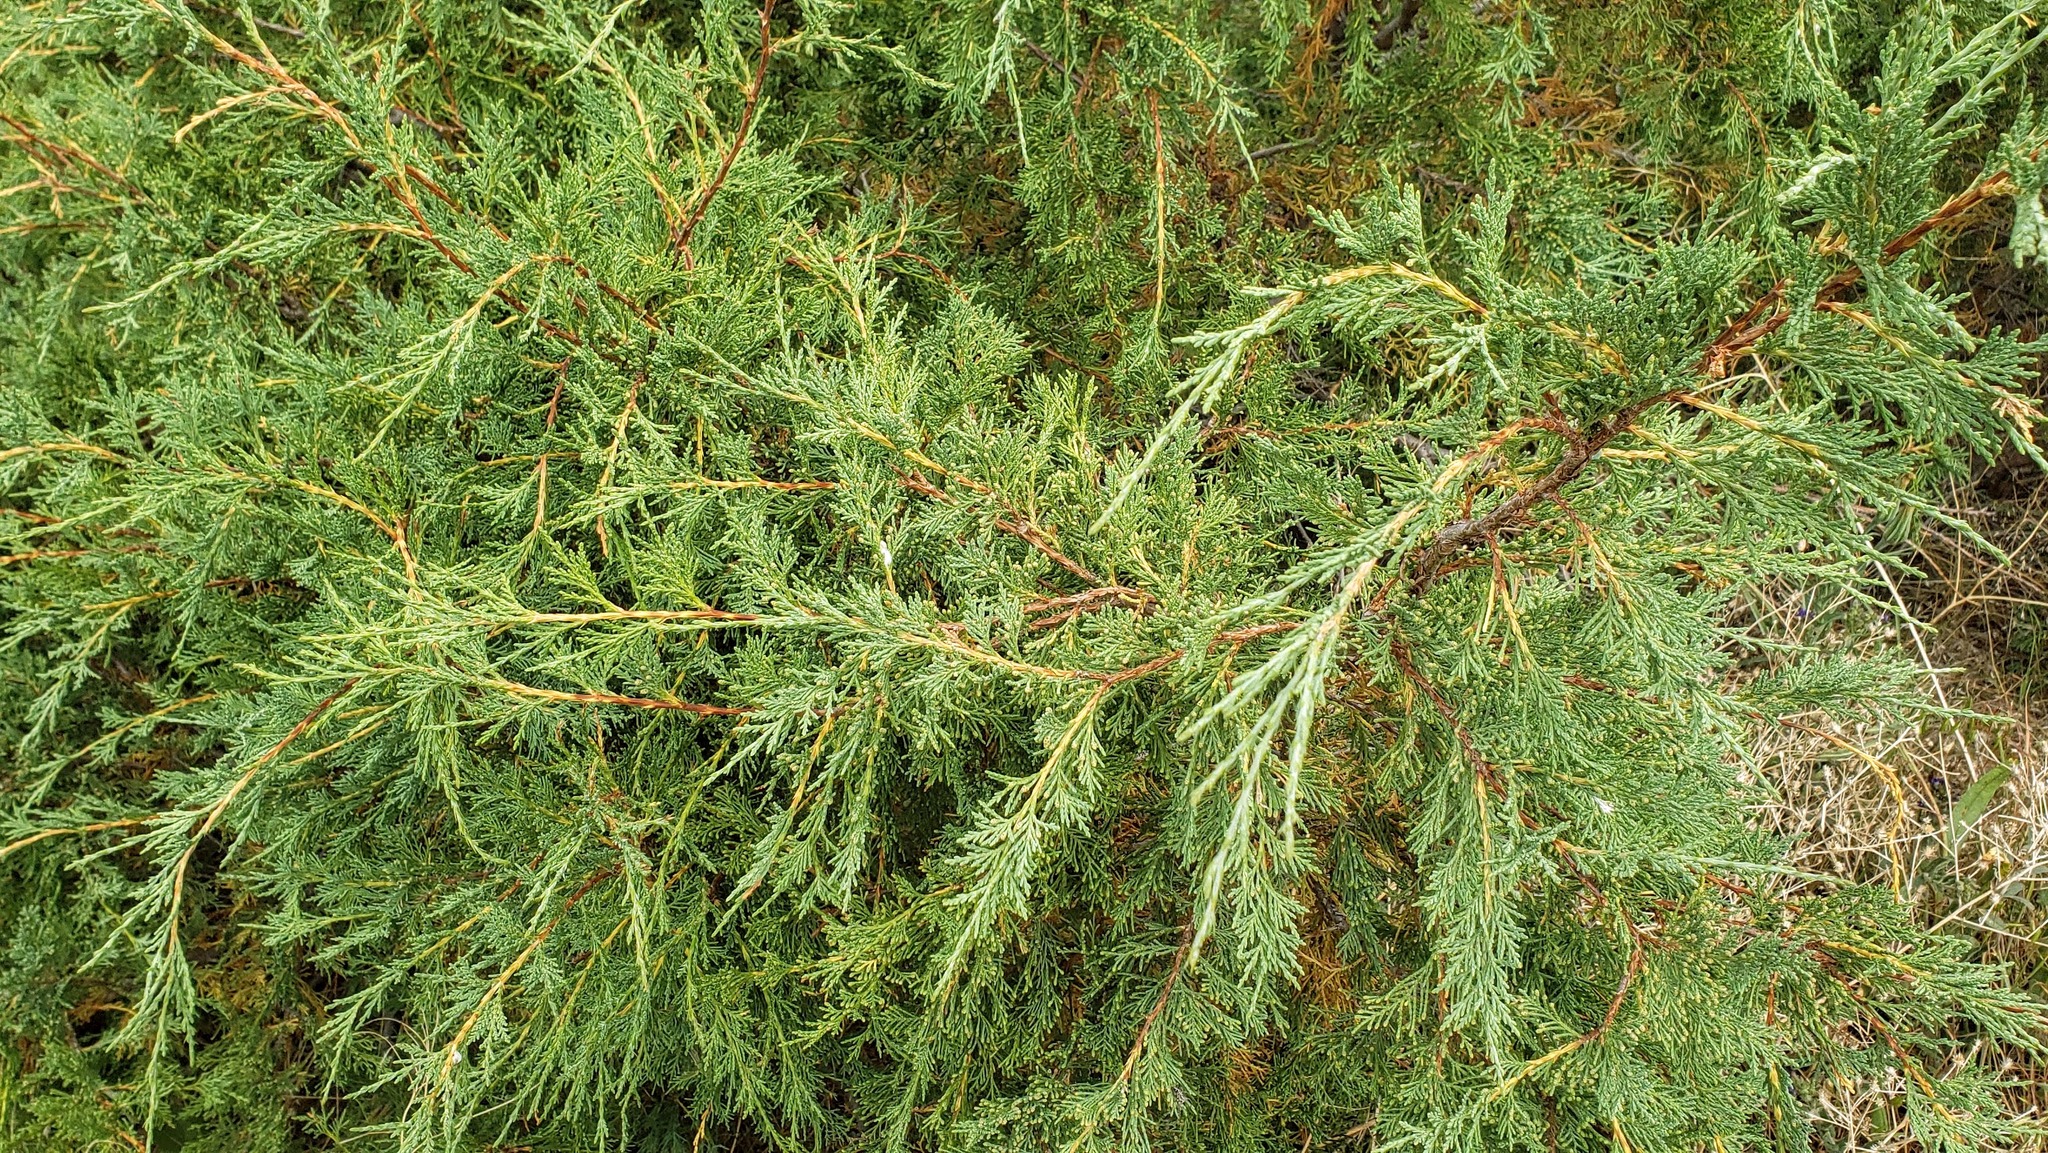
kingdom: Plantae
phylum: Tracheophyta
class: Pinopsida
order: Pinales
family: Cupressaceae
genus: Juniperus
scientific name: Juniperus scopulorum
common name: Rocky mountain juniper
